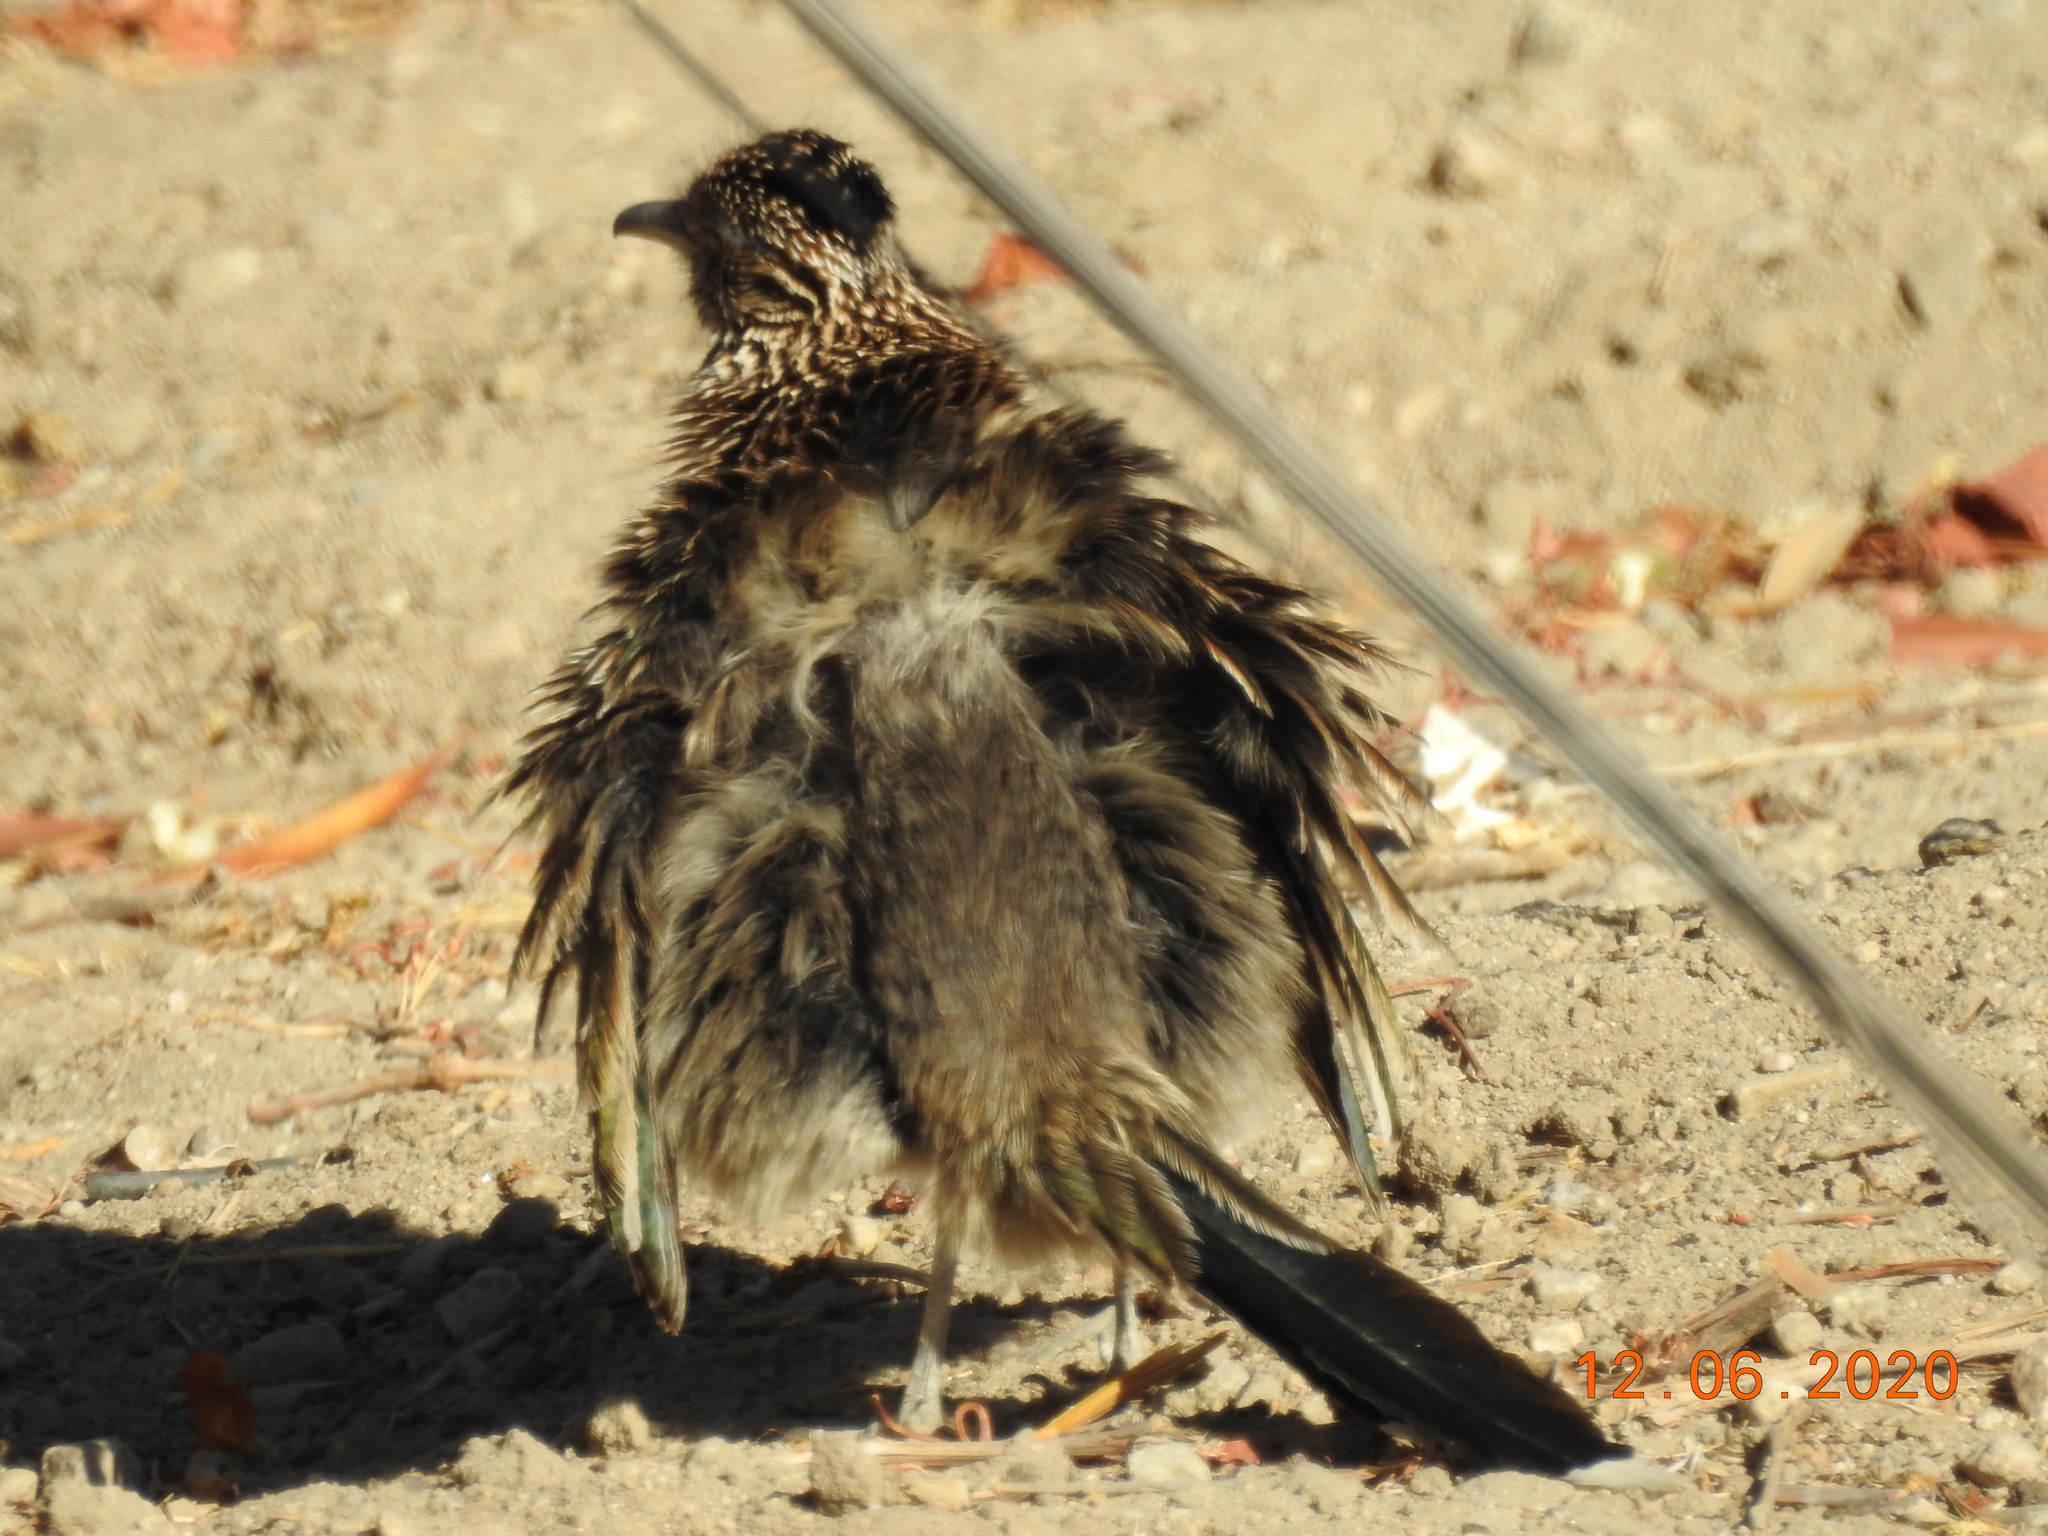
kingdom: Animalia
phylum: Chordata
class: Aves
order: Cuculiformes
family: Cuculidae
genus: Geococcyx
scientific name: Geococcyx californianus
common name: Greater roadrunner
